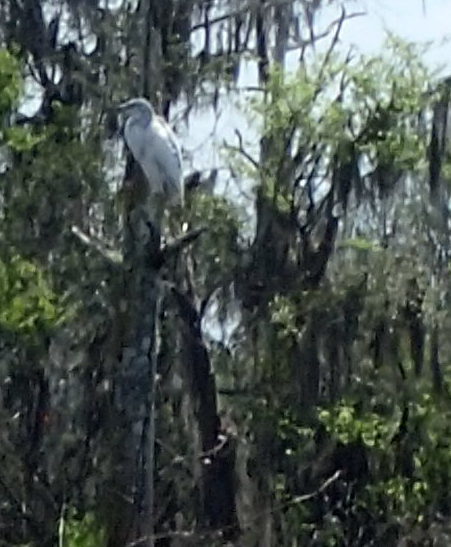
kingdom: Animalia
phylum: Chordata
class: Aves
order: Pelecaniformes
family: Ardeidae
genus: Egretta
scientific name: Egretta caerulea
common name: Little blue heron
